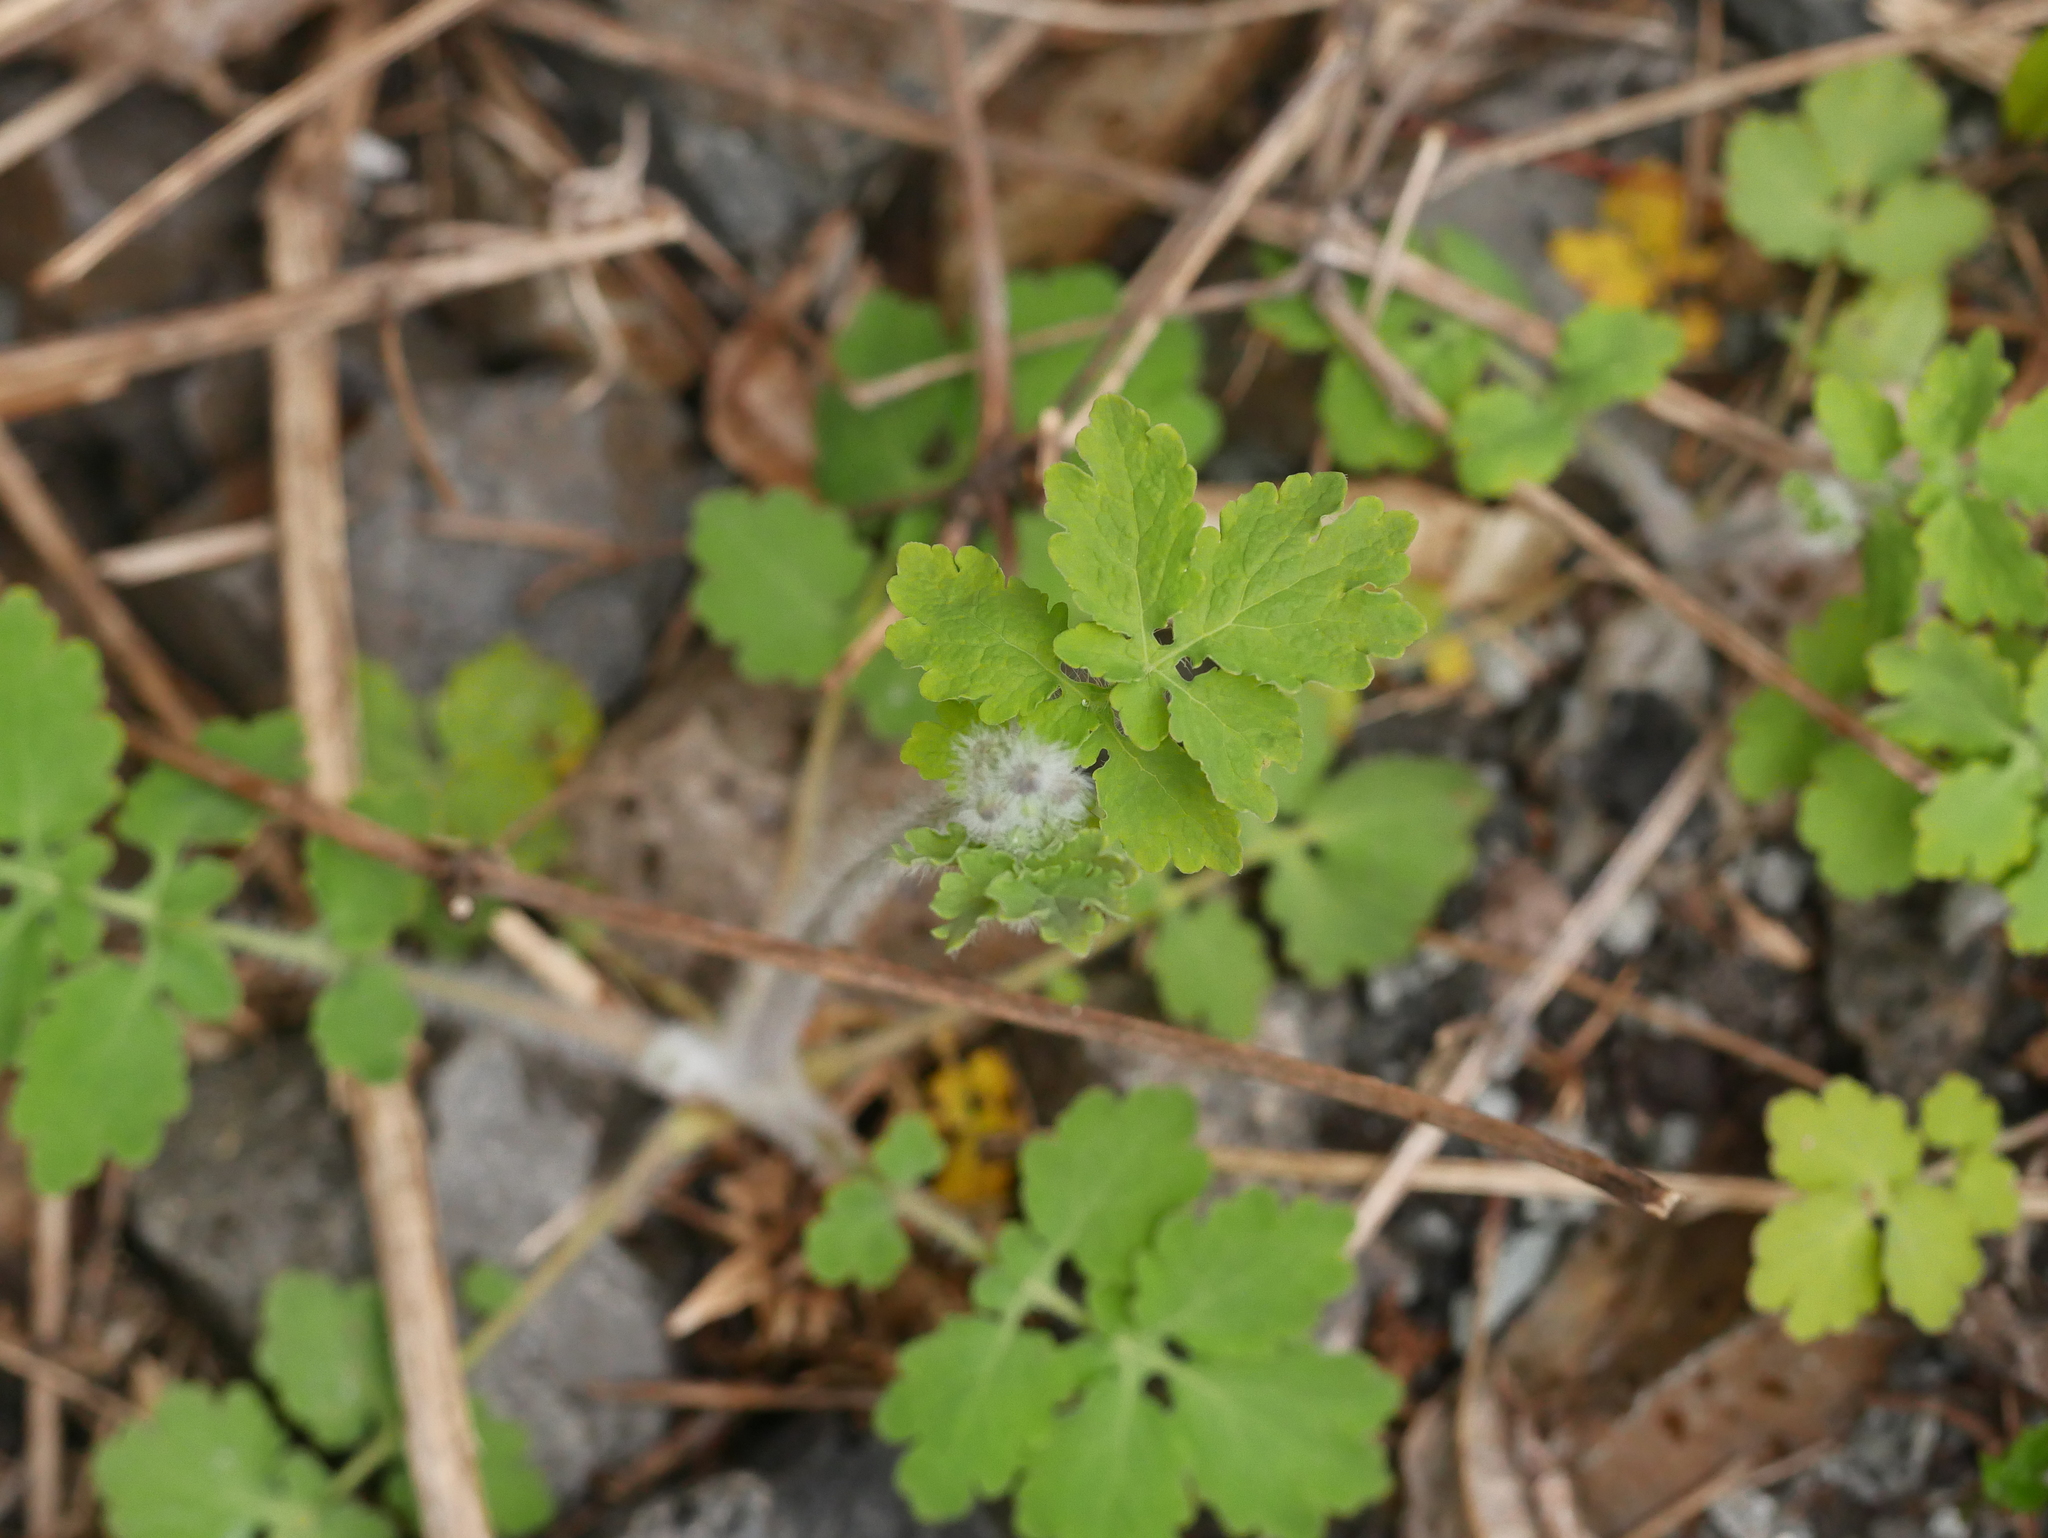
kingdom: Plantae
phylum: Tracheophyta
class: Magnoliopsida
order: Ranunculales
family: Papaveraceae
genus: Chelidonium
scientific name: Chelidonium majus
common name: Greater celandine
